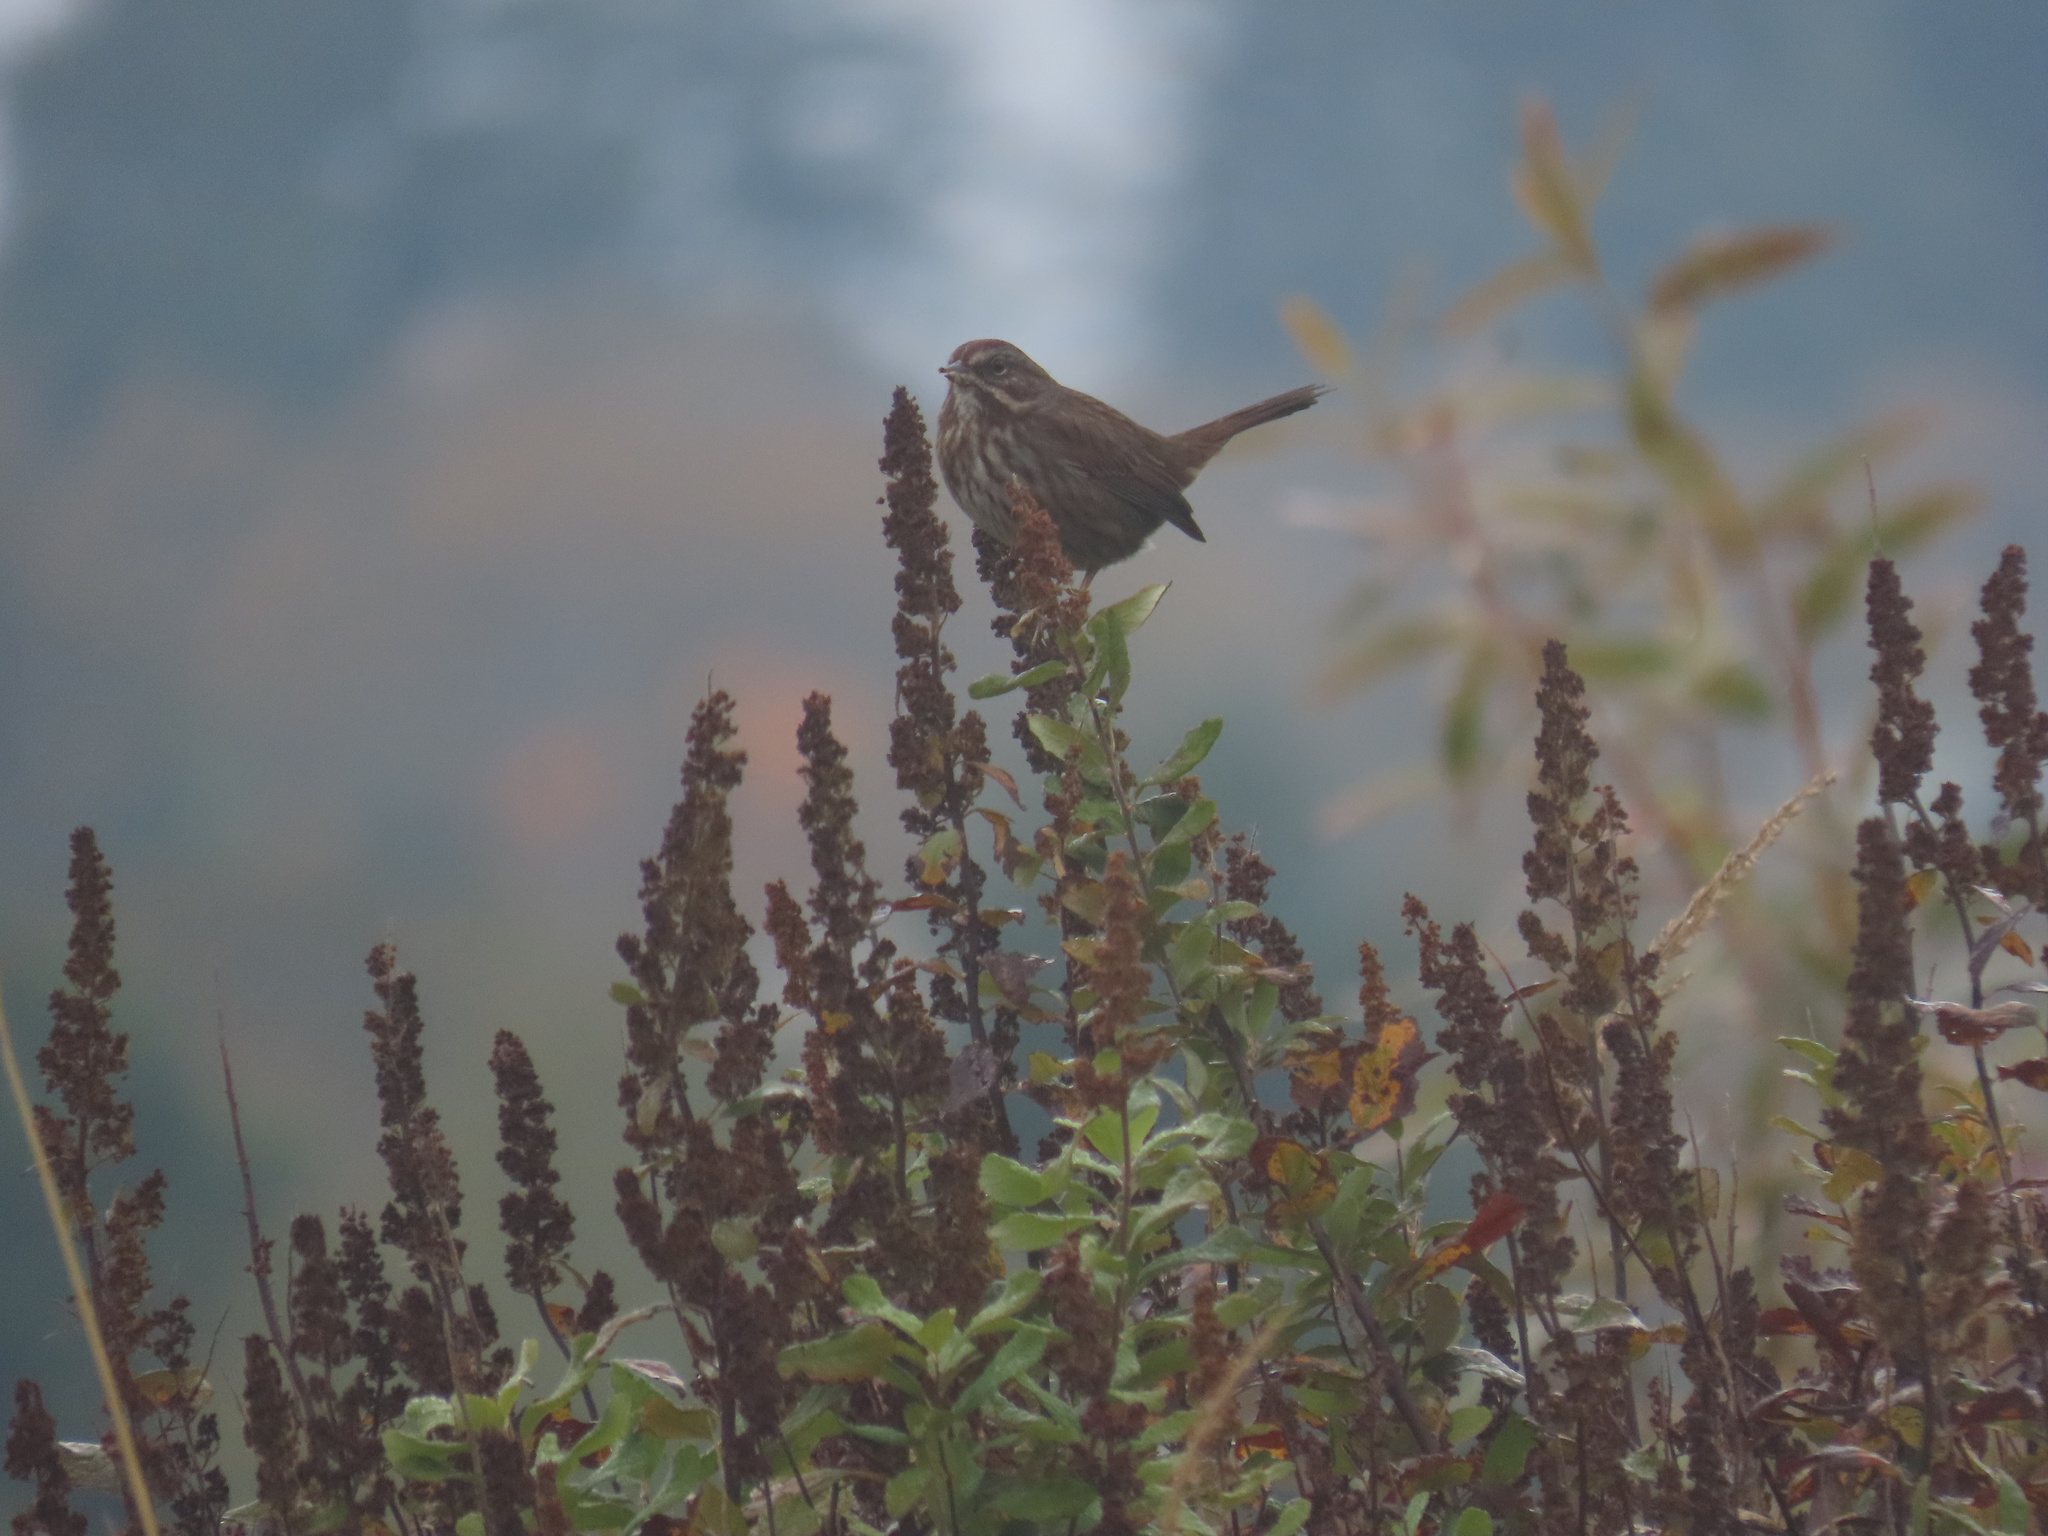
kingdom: Animalia
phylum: Chordata
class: Aves
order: Passeriformes
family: Passerellidae
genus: Melospiza
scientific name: Melospiza melodia
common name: Song sparrow
